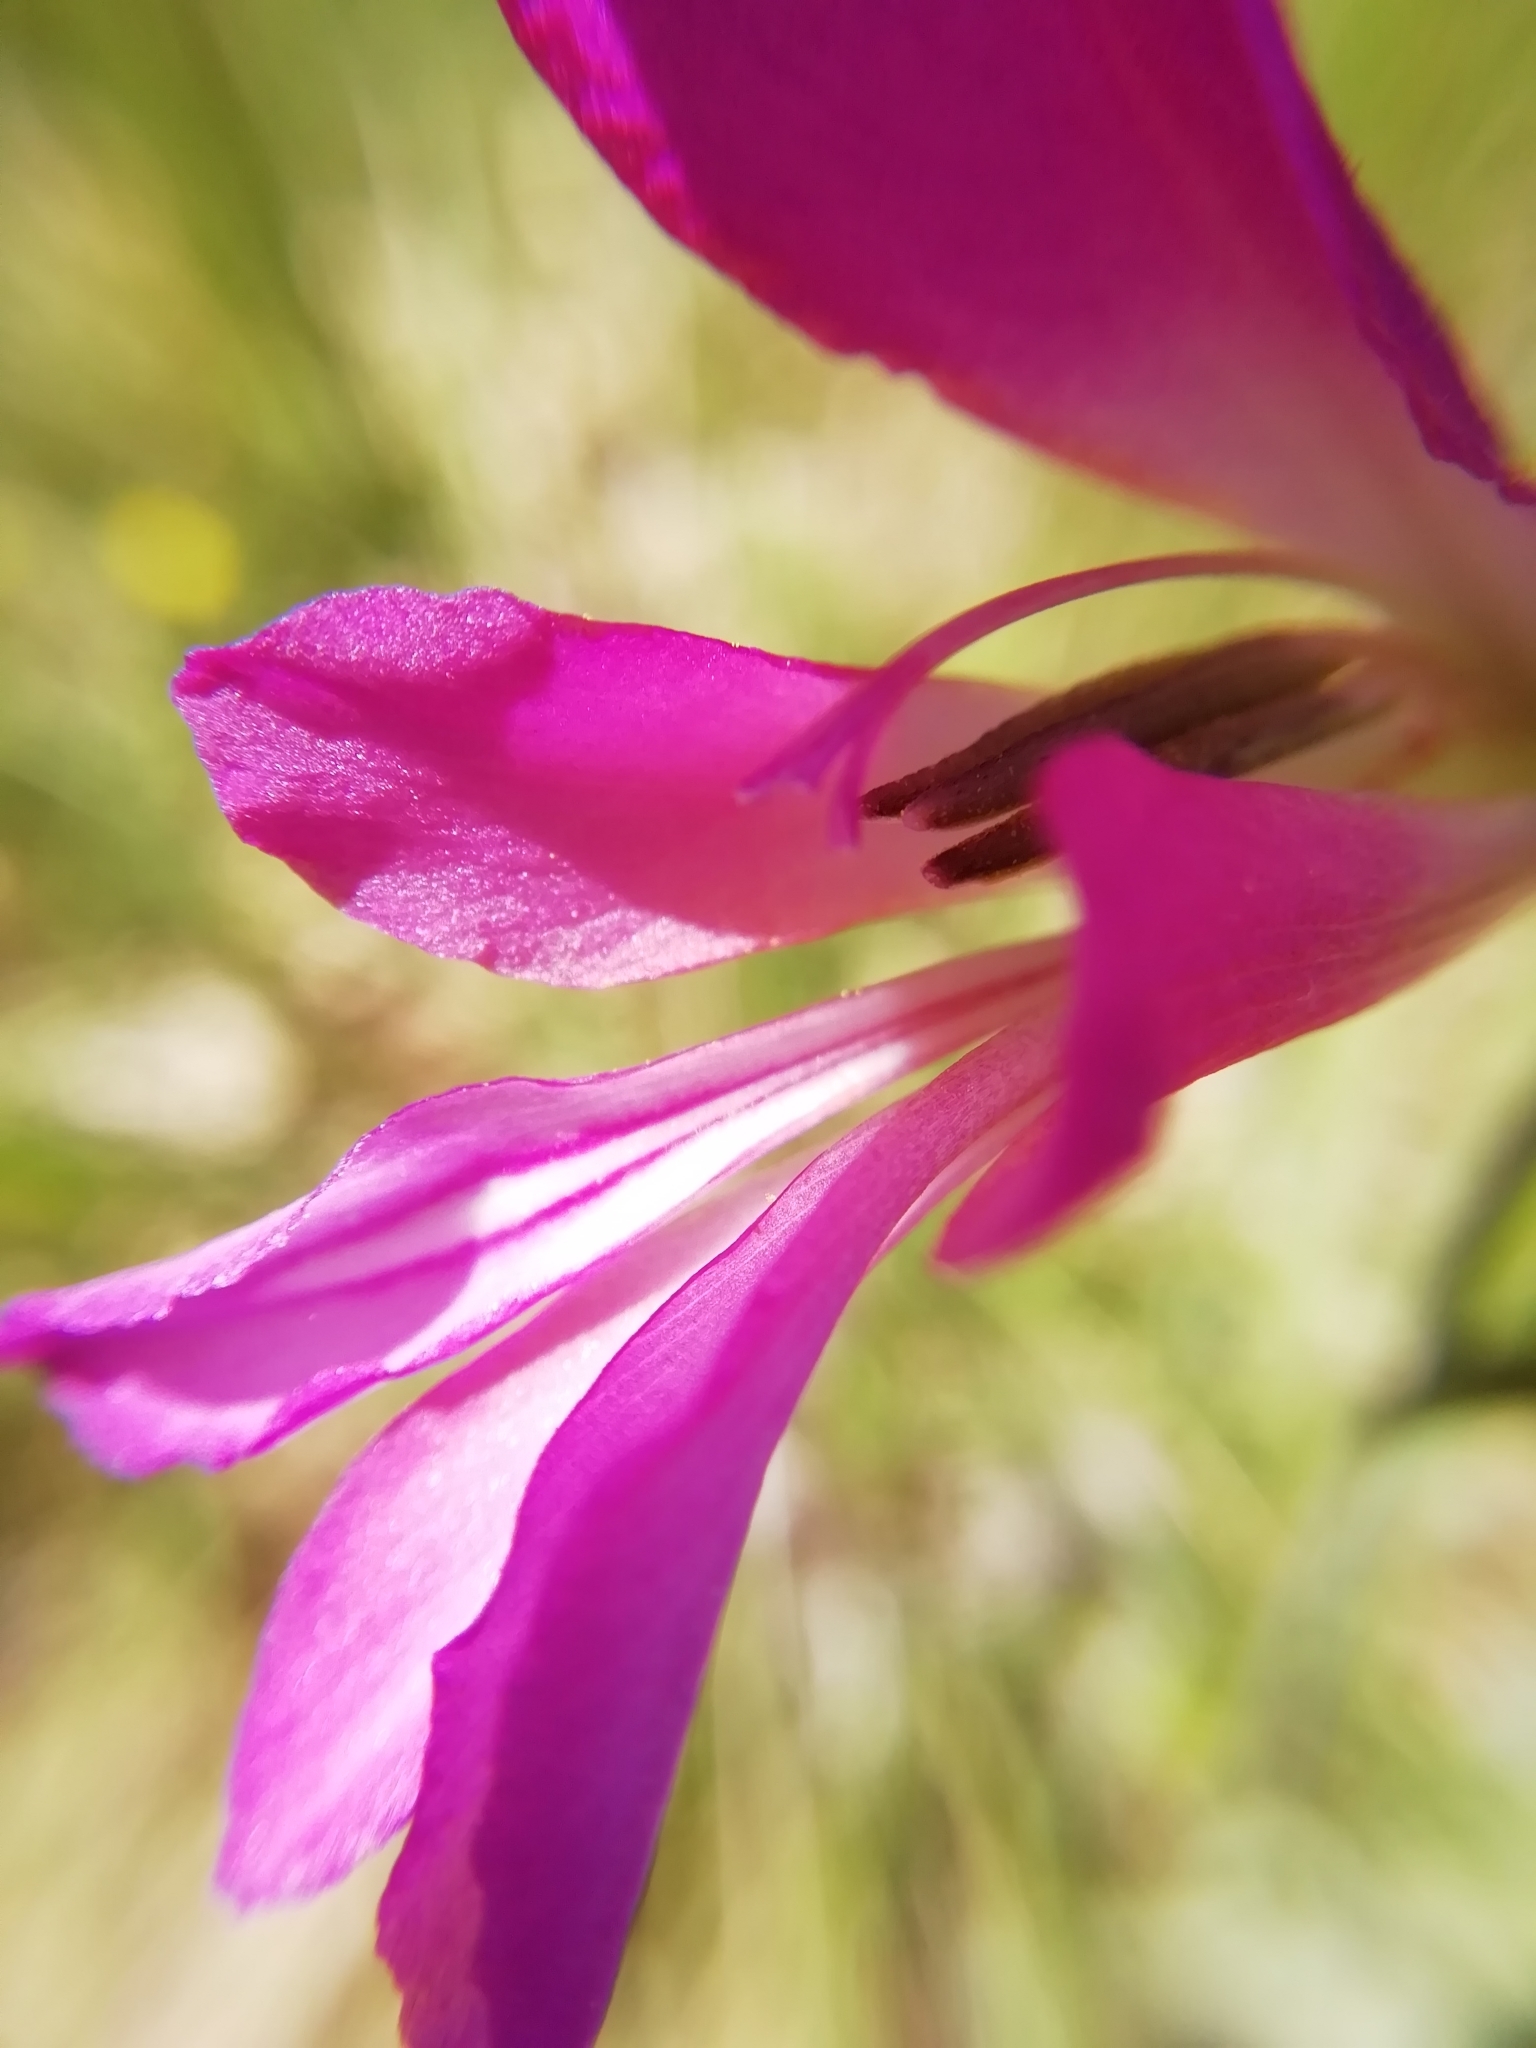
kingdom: Plantae
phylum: Tracheophyta
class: Liliopsida
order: Asparagales
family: Iridaceae
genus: Gladiolus
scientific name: Gladiolus italicus
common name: Field gladiolus
